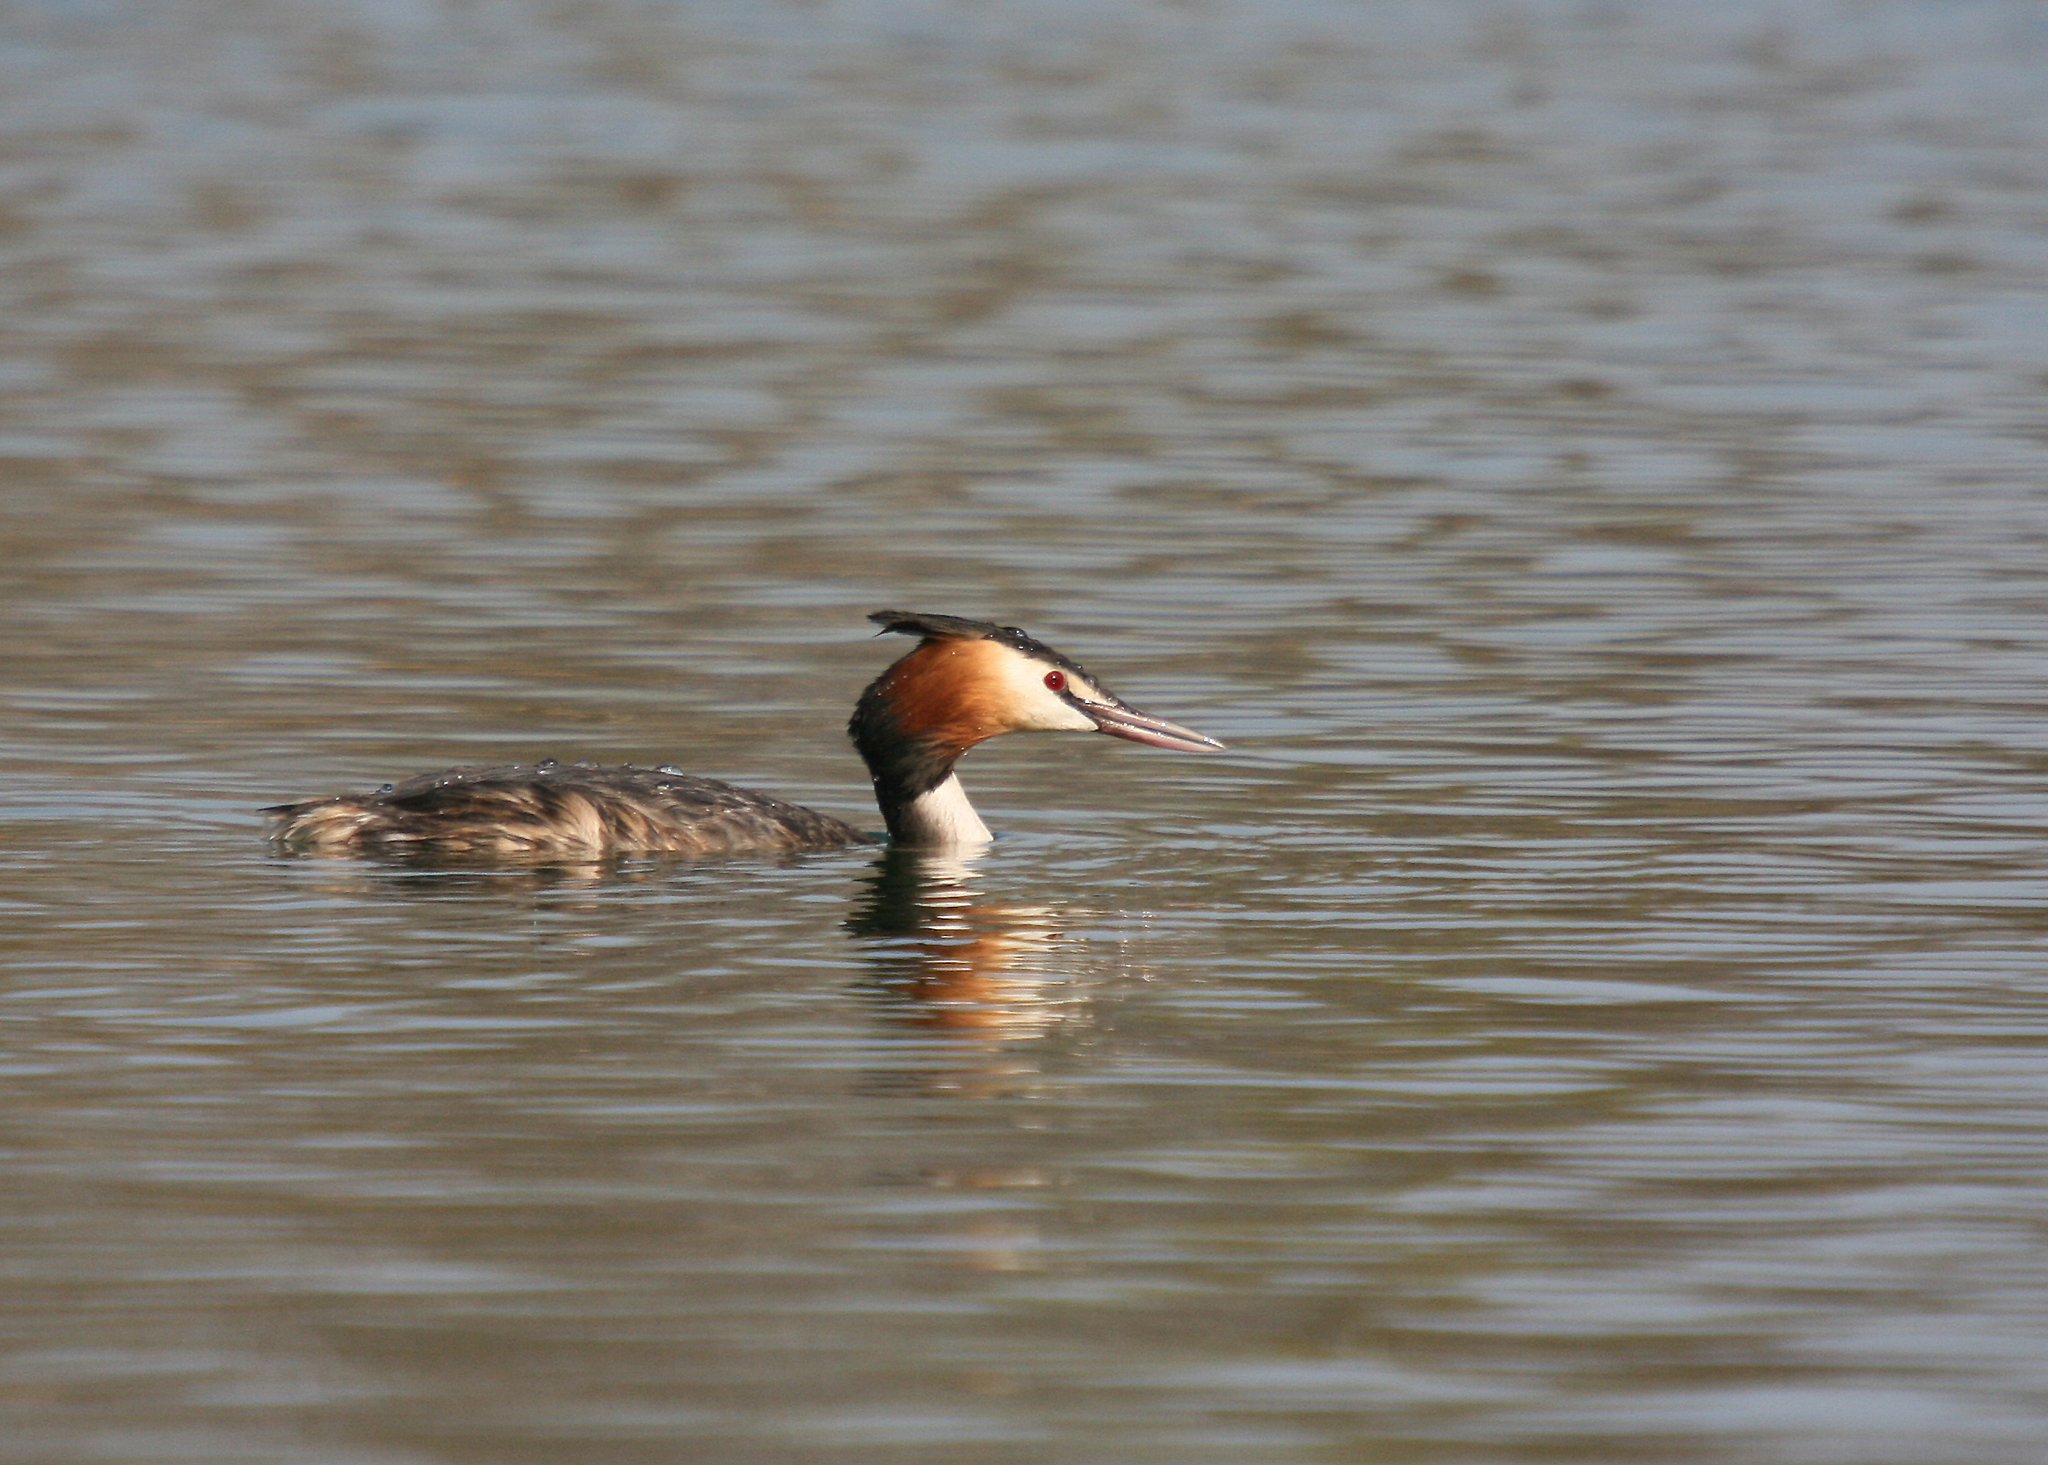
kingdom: Animalia
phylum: Chordata
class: Aves
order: Podicipediformes
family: Podicipedidae
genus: Podiceps
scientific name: Podiceps cristatus
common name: Great crested grebe
